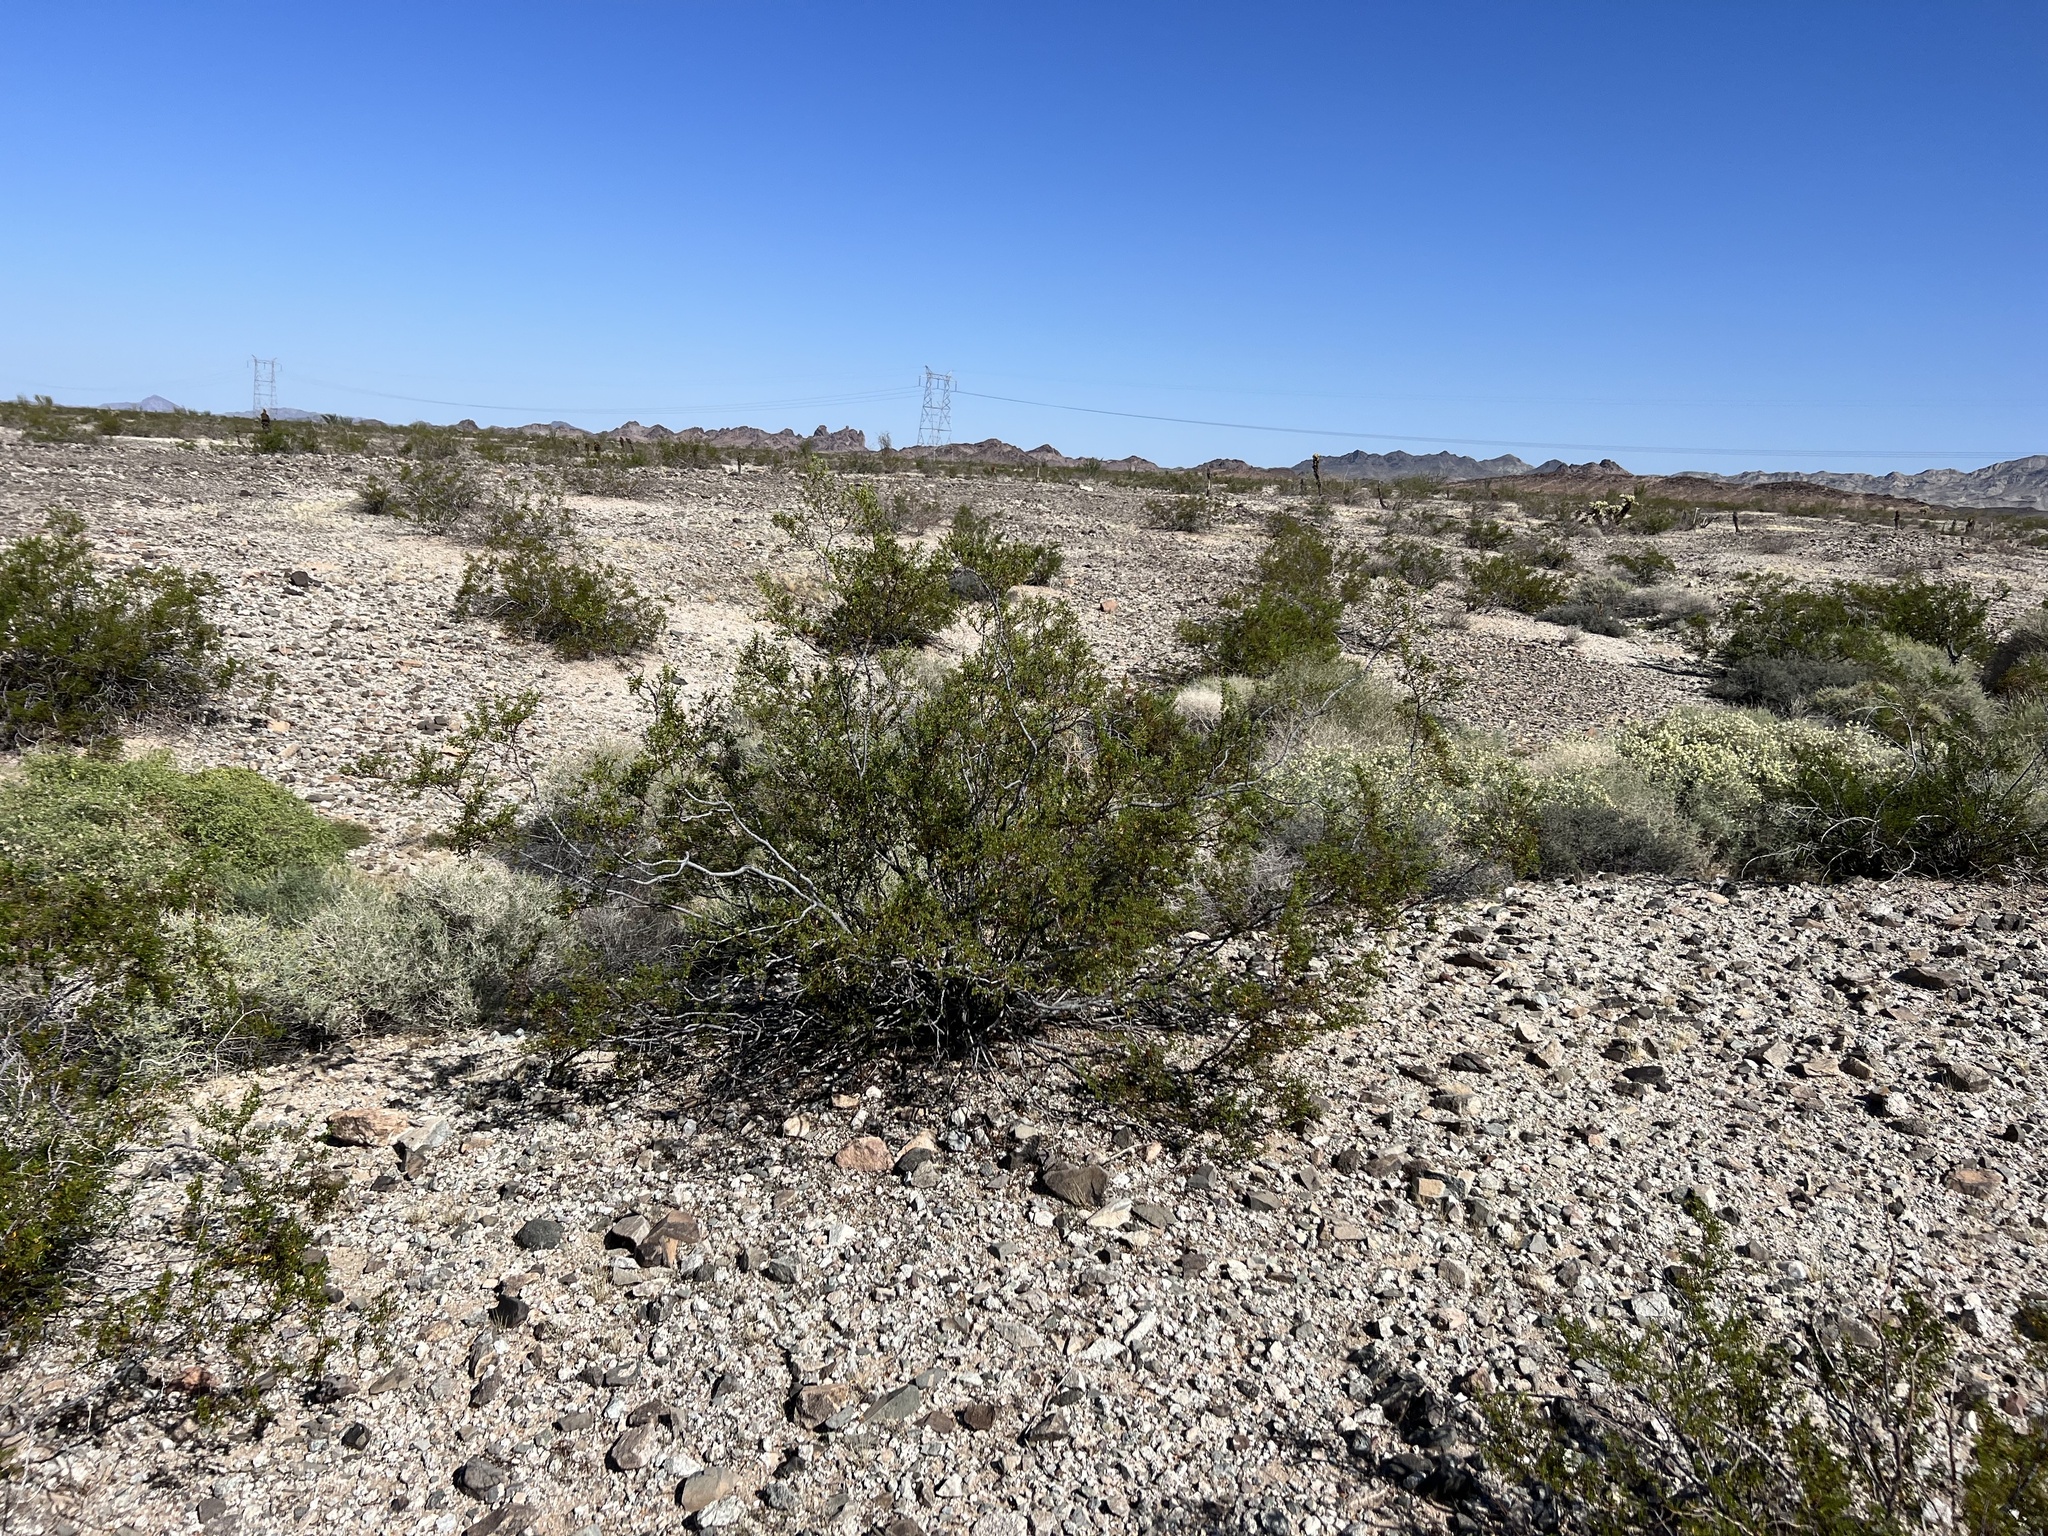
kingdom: Plantae
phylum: Tracheophyta
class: Magnoliopsida
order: Zygophyllales
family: Zygophyllaceae
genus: Larrea
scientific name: Larrea tridentata
